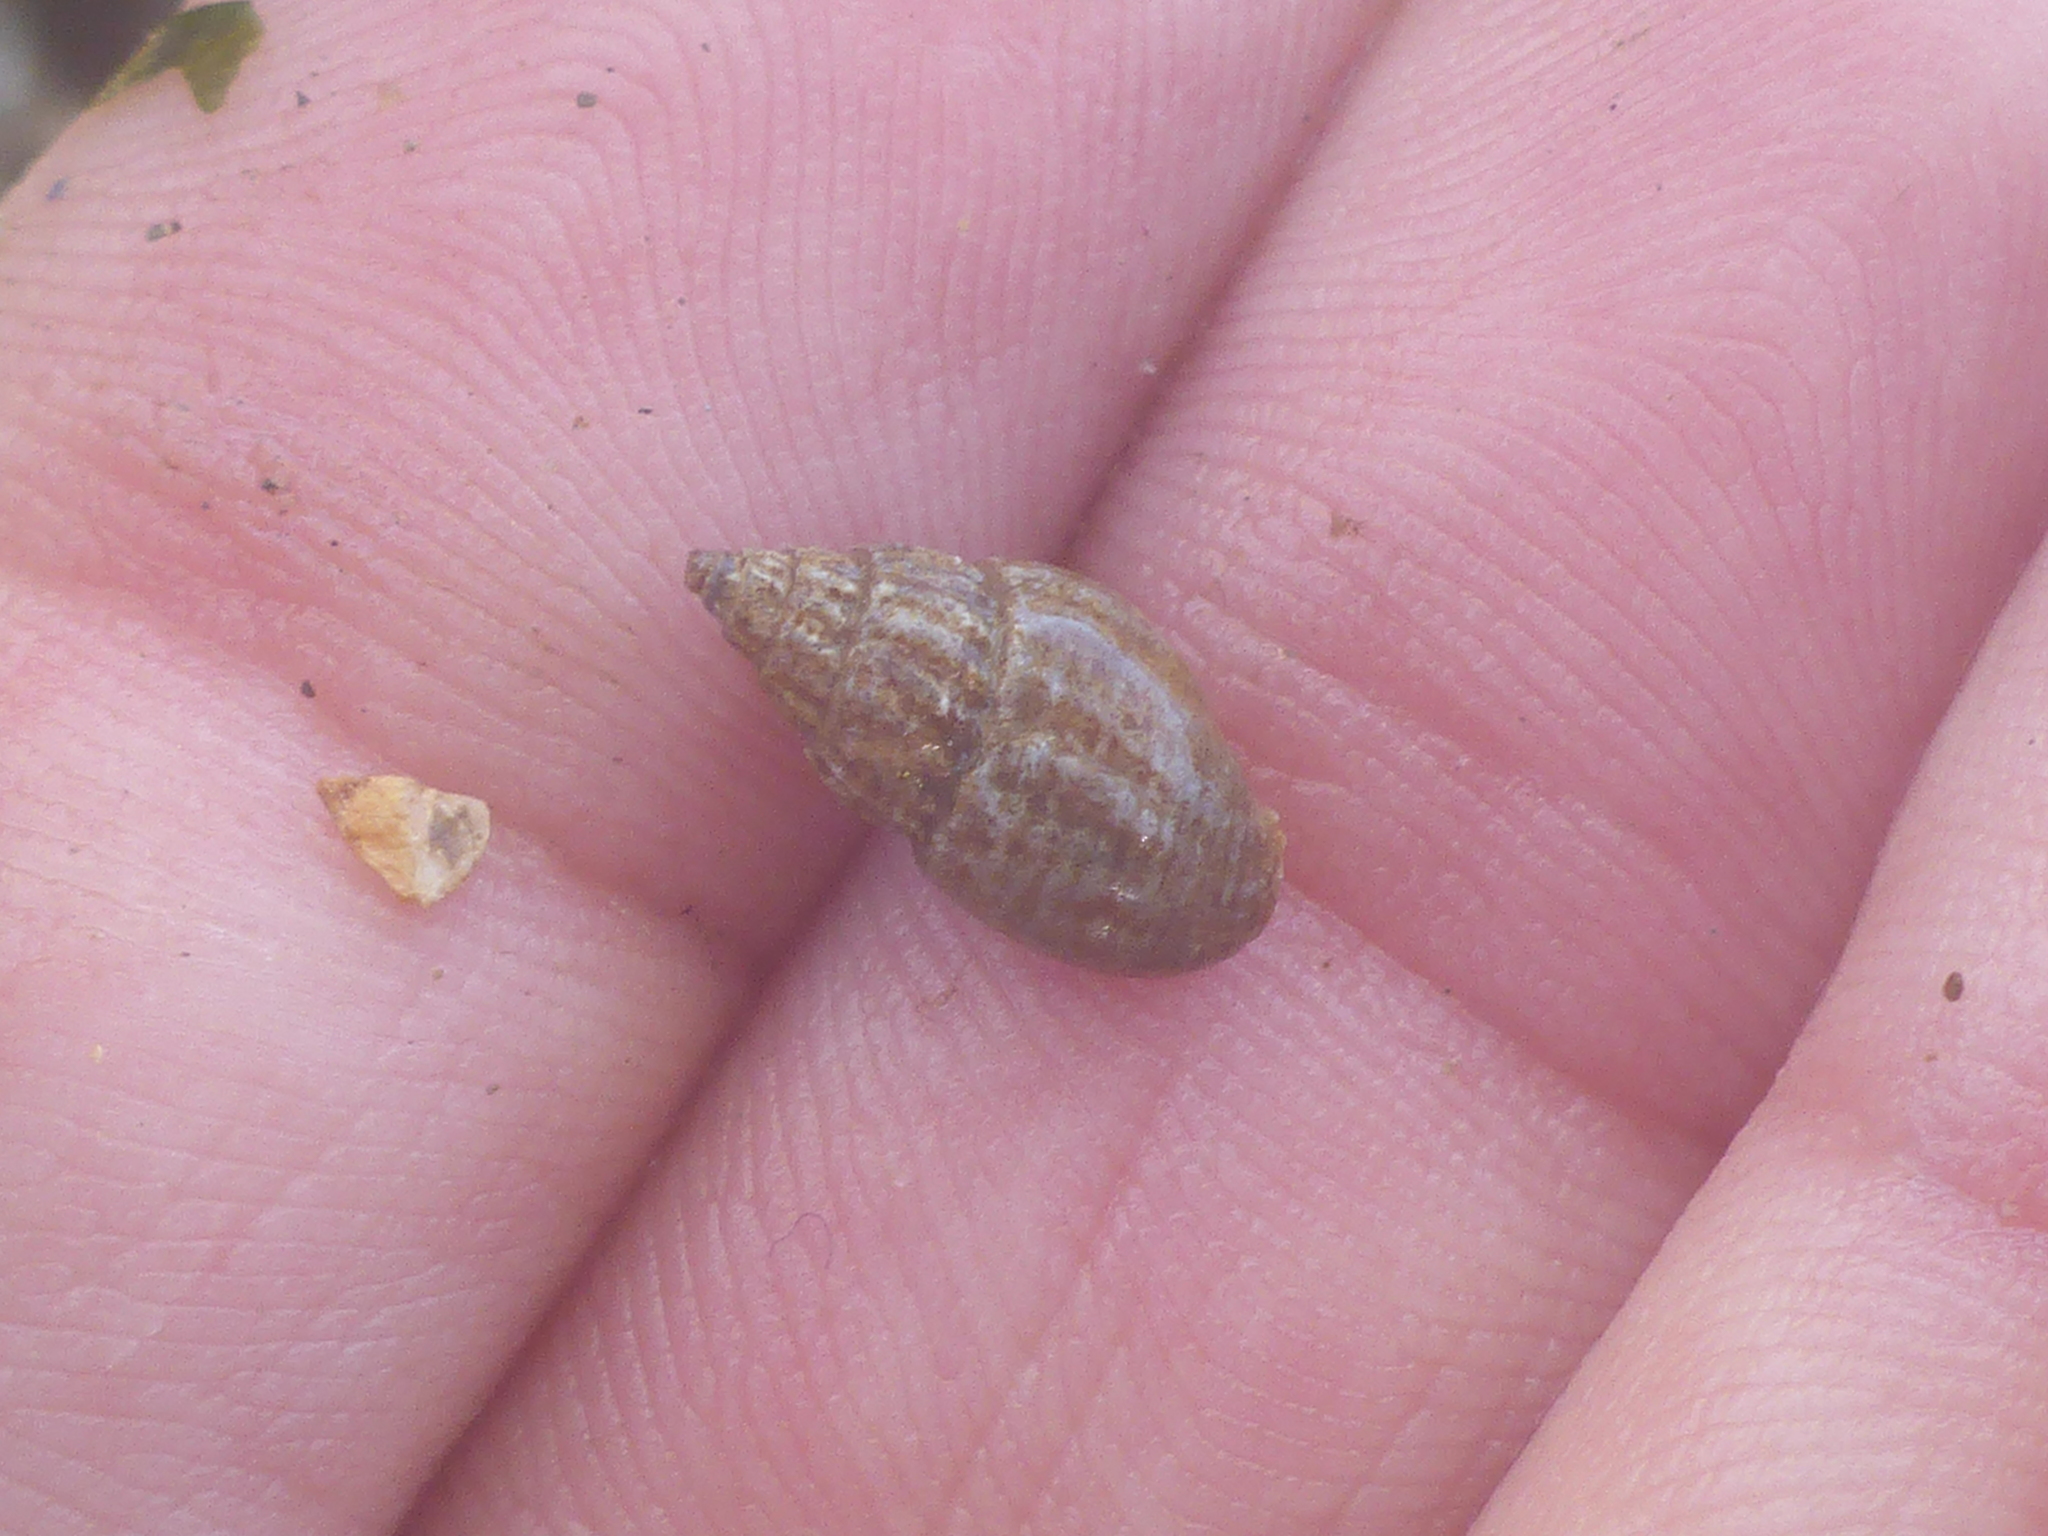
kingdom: Animalia
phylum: Mollusca
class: Gastropoda
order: Neogastropoda
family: Columbellidae
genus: Amphissa
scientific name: Amphissa columbiana
